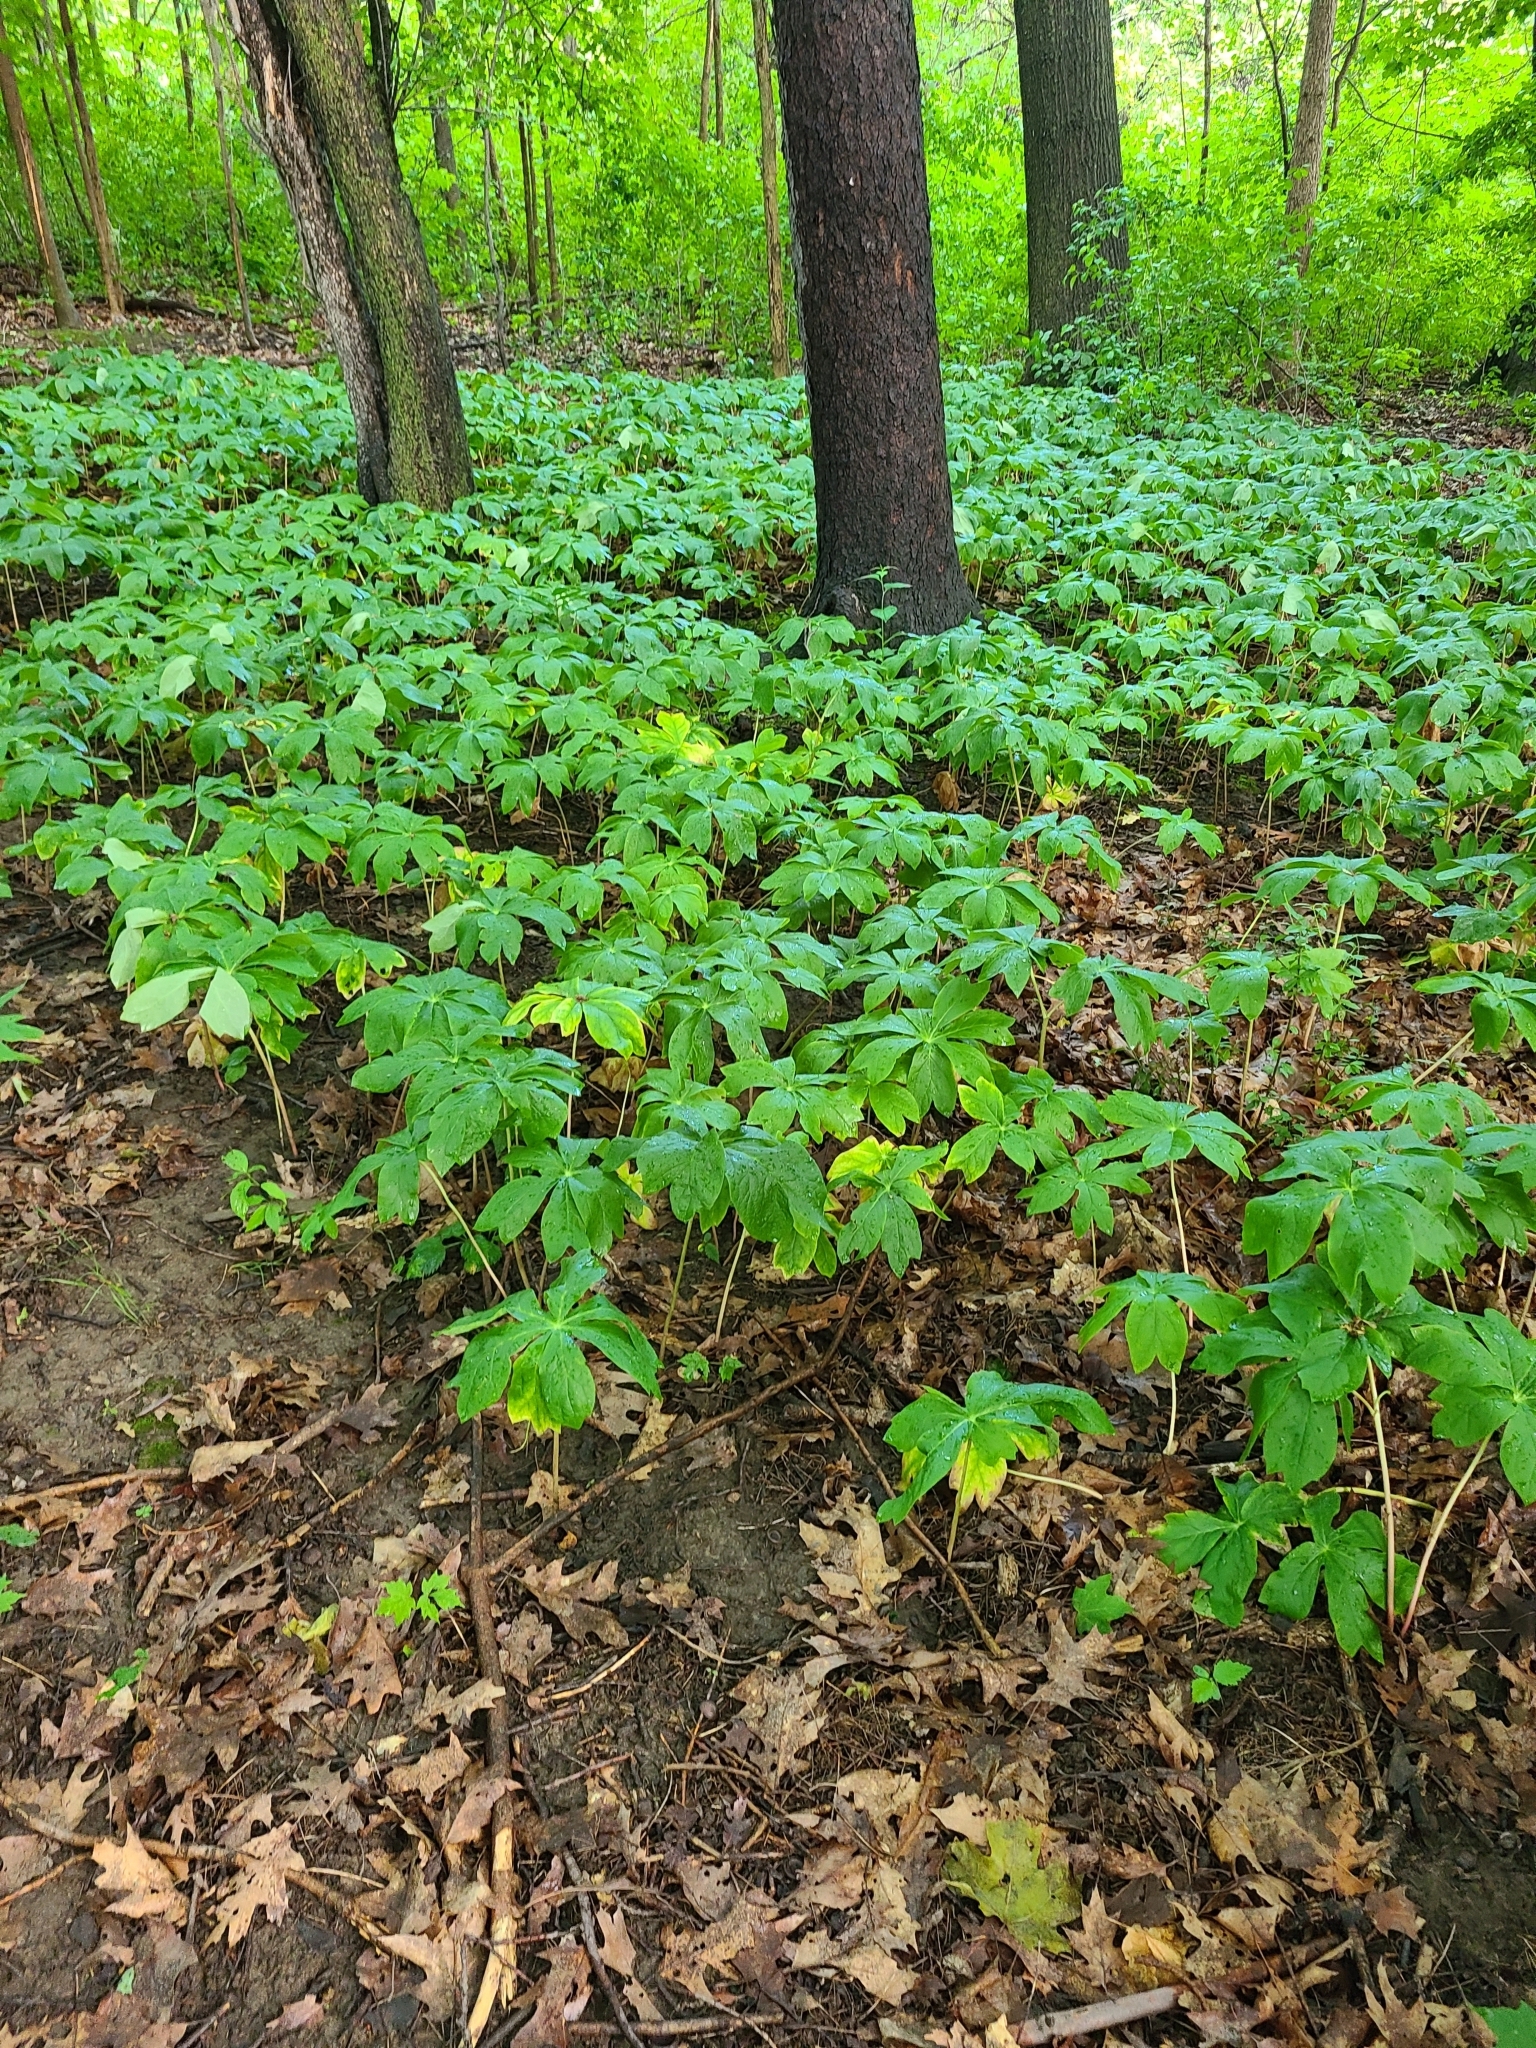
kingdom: Plantae
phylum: Tracheophyta
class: Magnoliopsida
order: Ranunculales
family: Berberidaceae
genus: Podophyllum
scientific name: Podophyllum peltatum
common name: Wild mandrake
